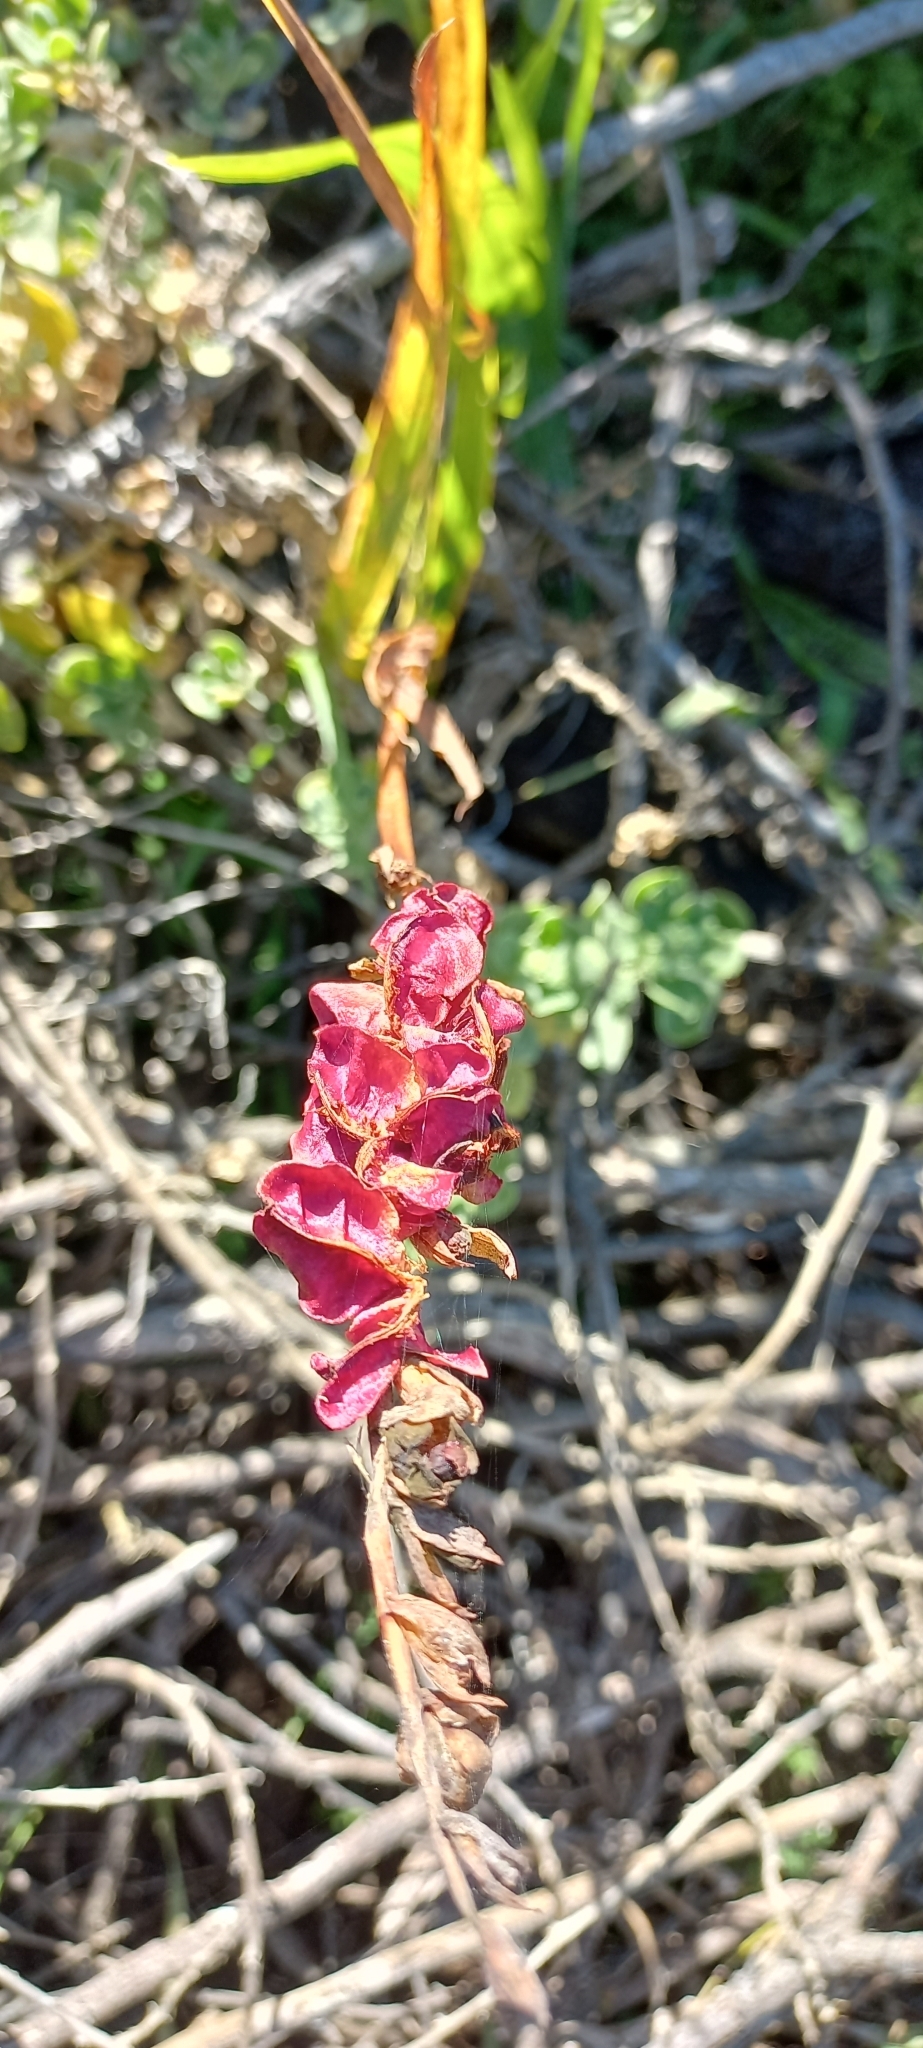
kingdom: Plantae
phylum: Tracheophyta
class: Liliopsida
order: Asparagales
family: Iridaceae
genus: Chasmanthe
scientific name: Chasmanthe aethiopica
